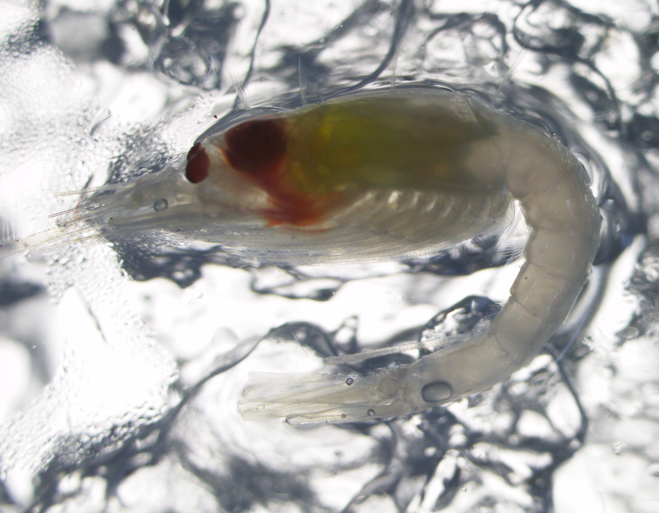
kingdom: Animalia
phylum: Arthropoda
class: Malacostraca
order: Mysida
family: Mysidae
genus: Boreomysis
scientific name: Boreomysis arctica
